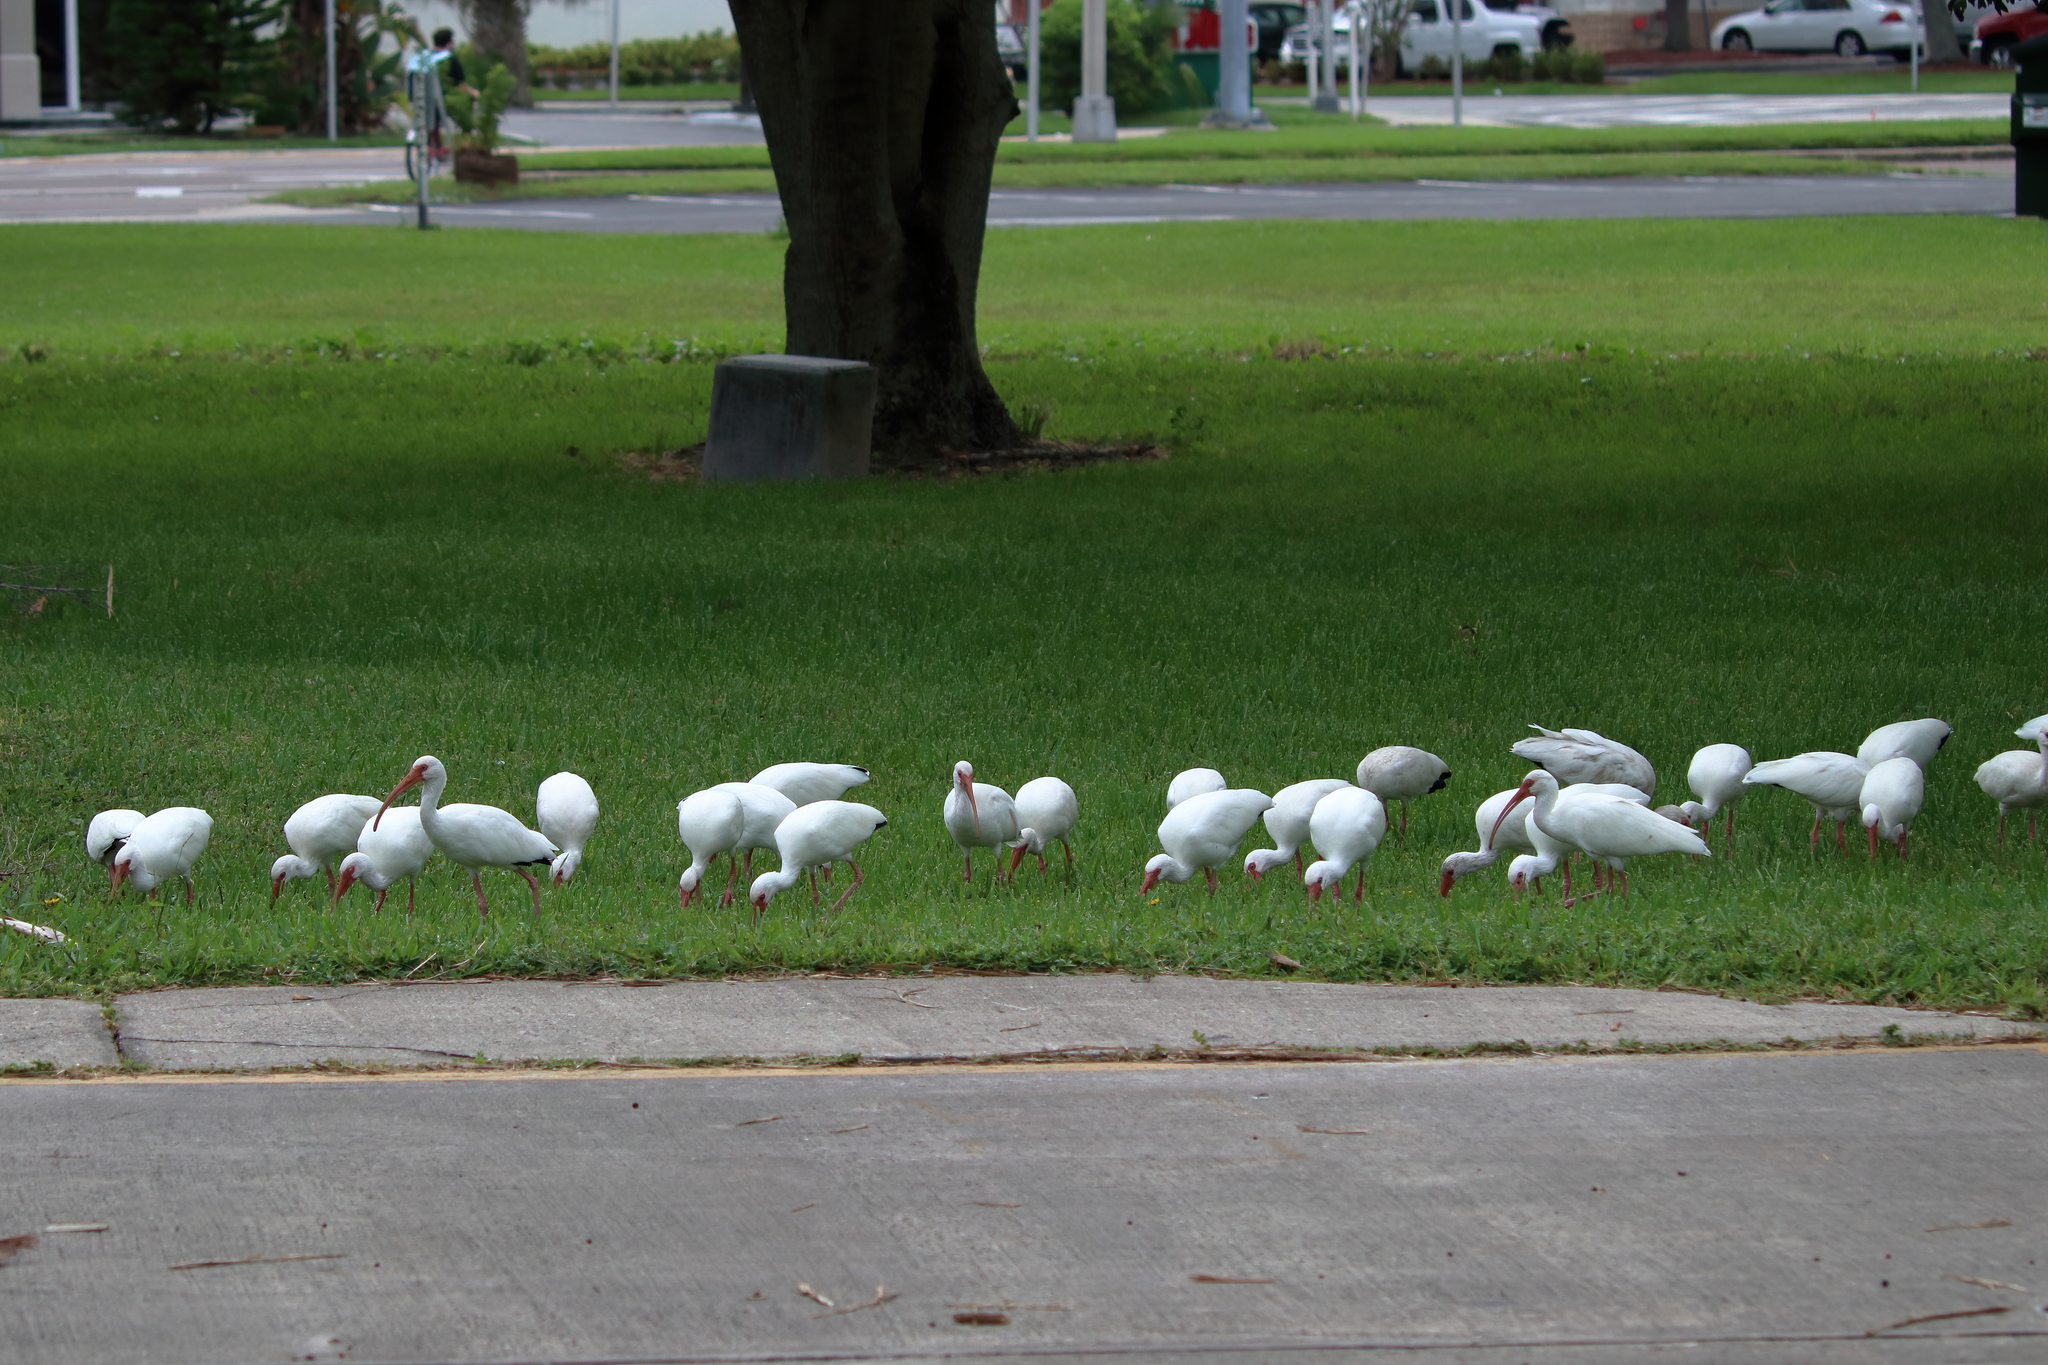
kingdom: Animalia
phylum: Chordata
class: Aves
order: Pelecaniformes
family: Threskiornithidae
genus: Eudocimus
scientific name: Eudocimus albus
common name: White ibis
